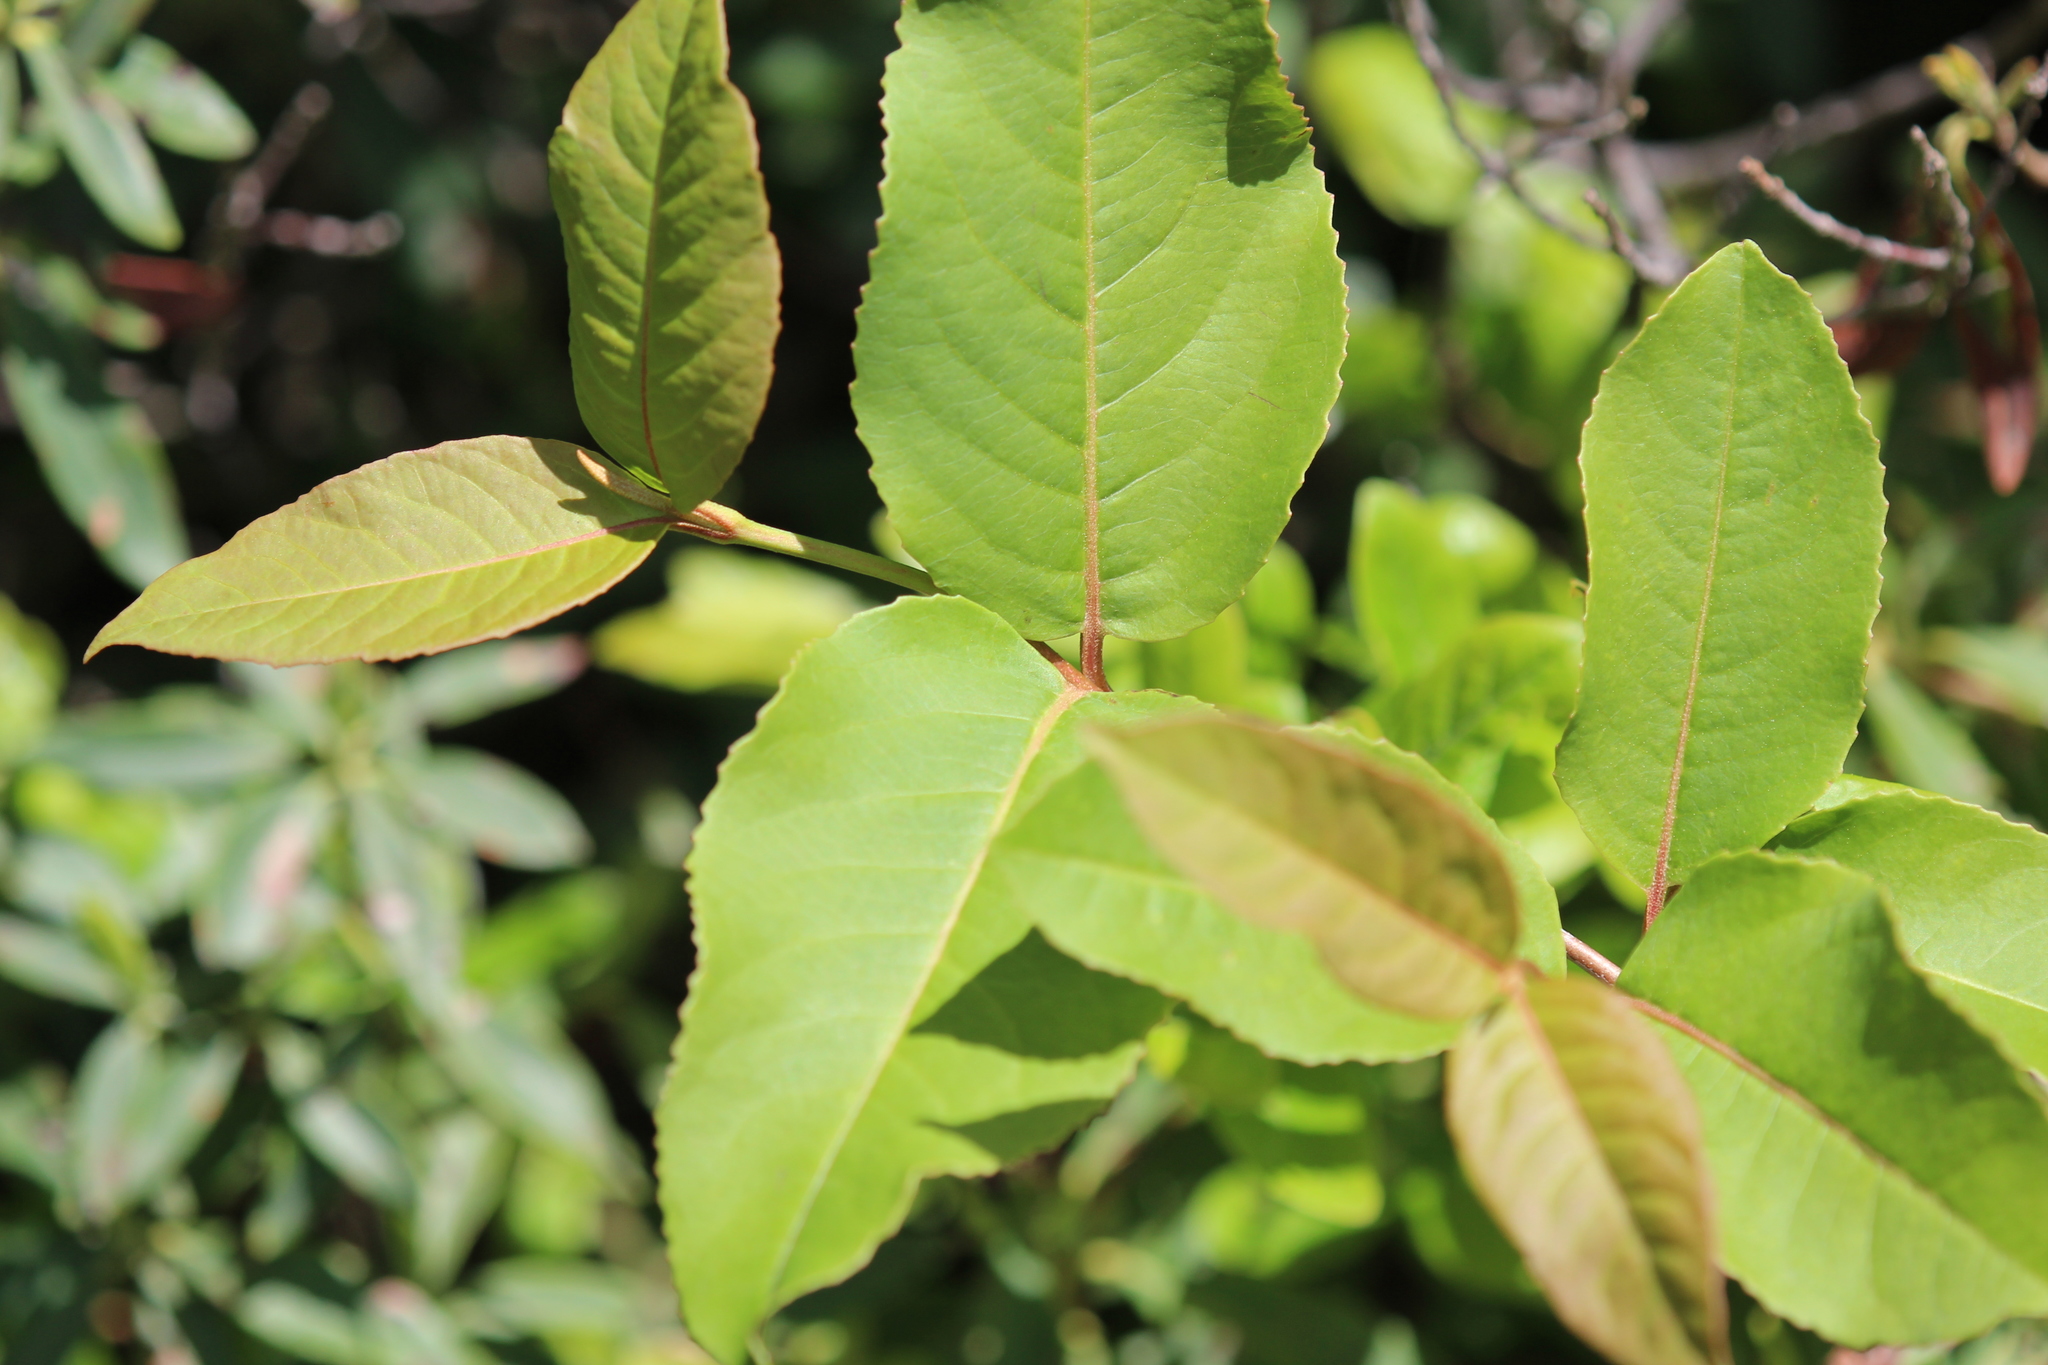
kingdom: Plantae
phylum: Tracheophyta
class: Magnoliopsida
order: Dipsacales
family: Viburnaceae
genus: Viburnum
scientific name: Viburnum cassinoides
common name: Swamp haw
